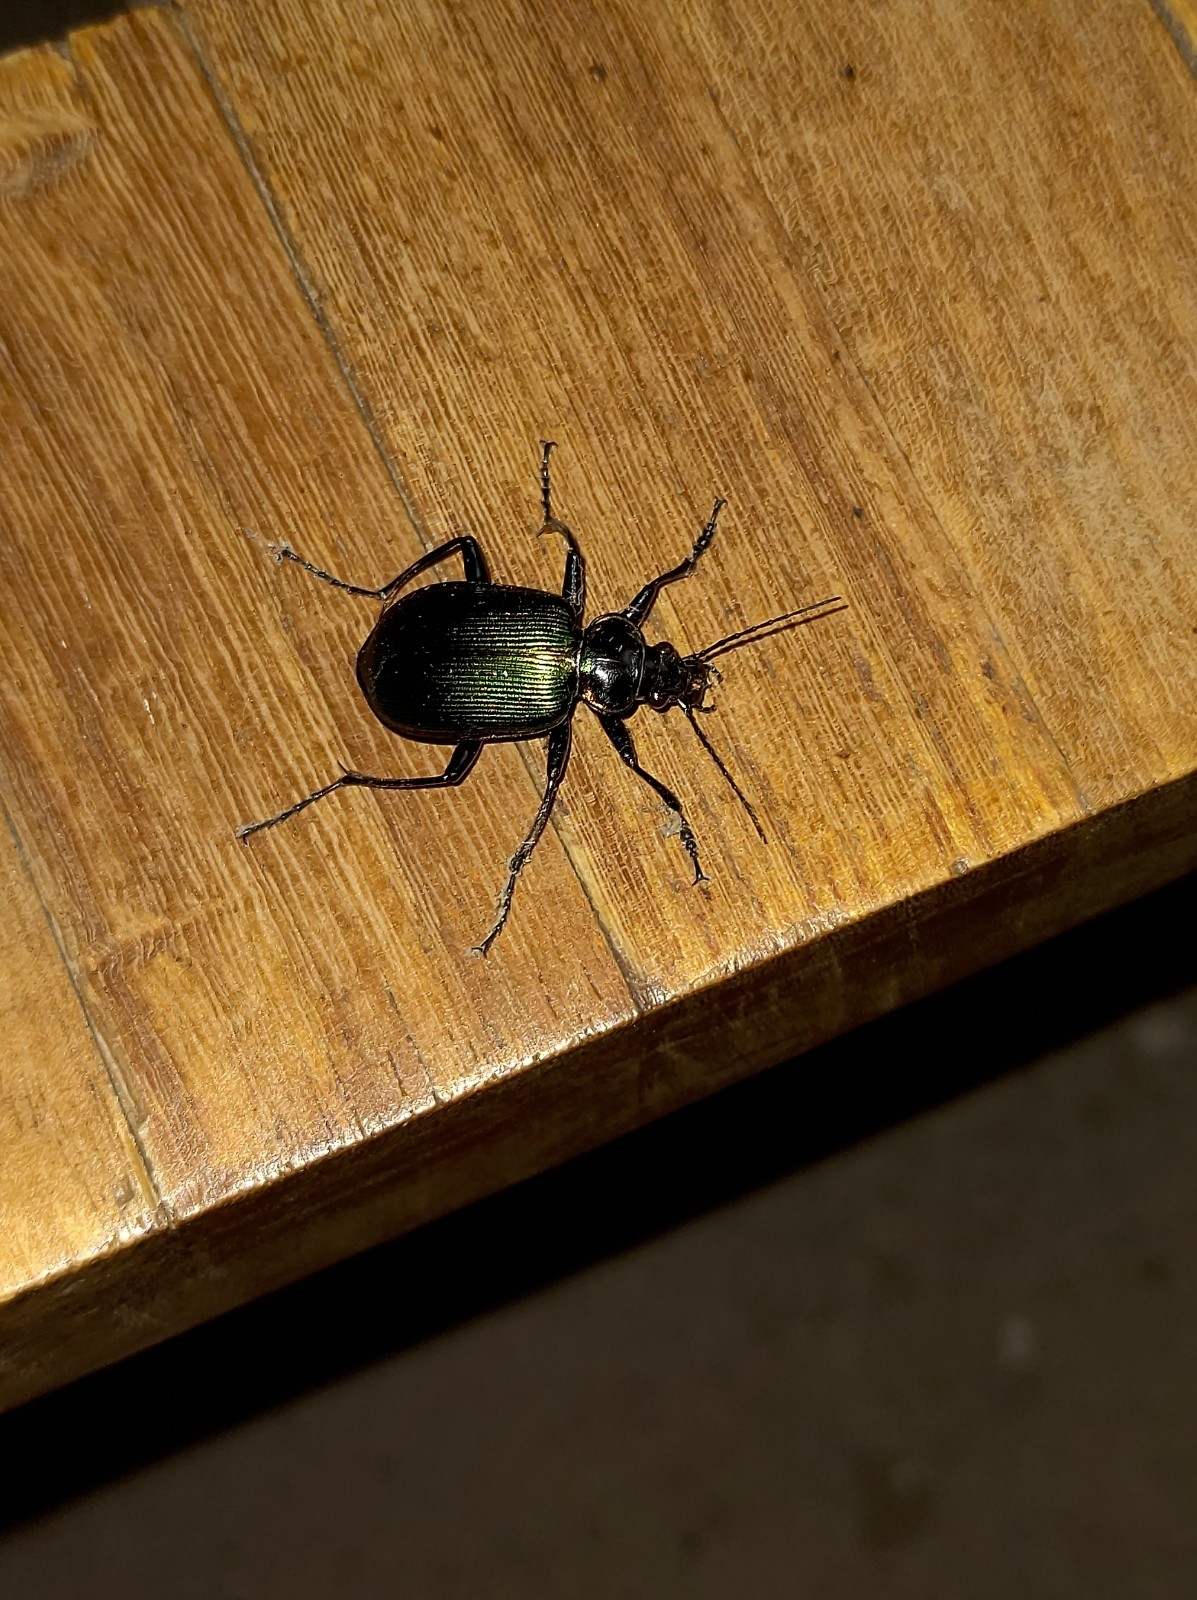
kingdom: Animalia
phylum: Arthropoda
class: Insecta
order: Coleoptera
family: Carabidae
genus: Calosoma
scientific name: Calosoma scrutator
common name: Fiery searcher beetle
